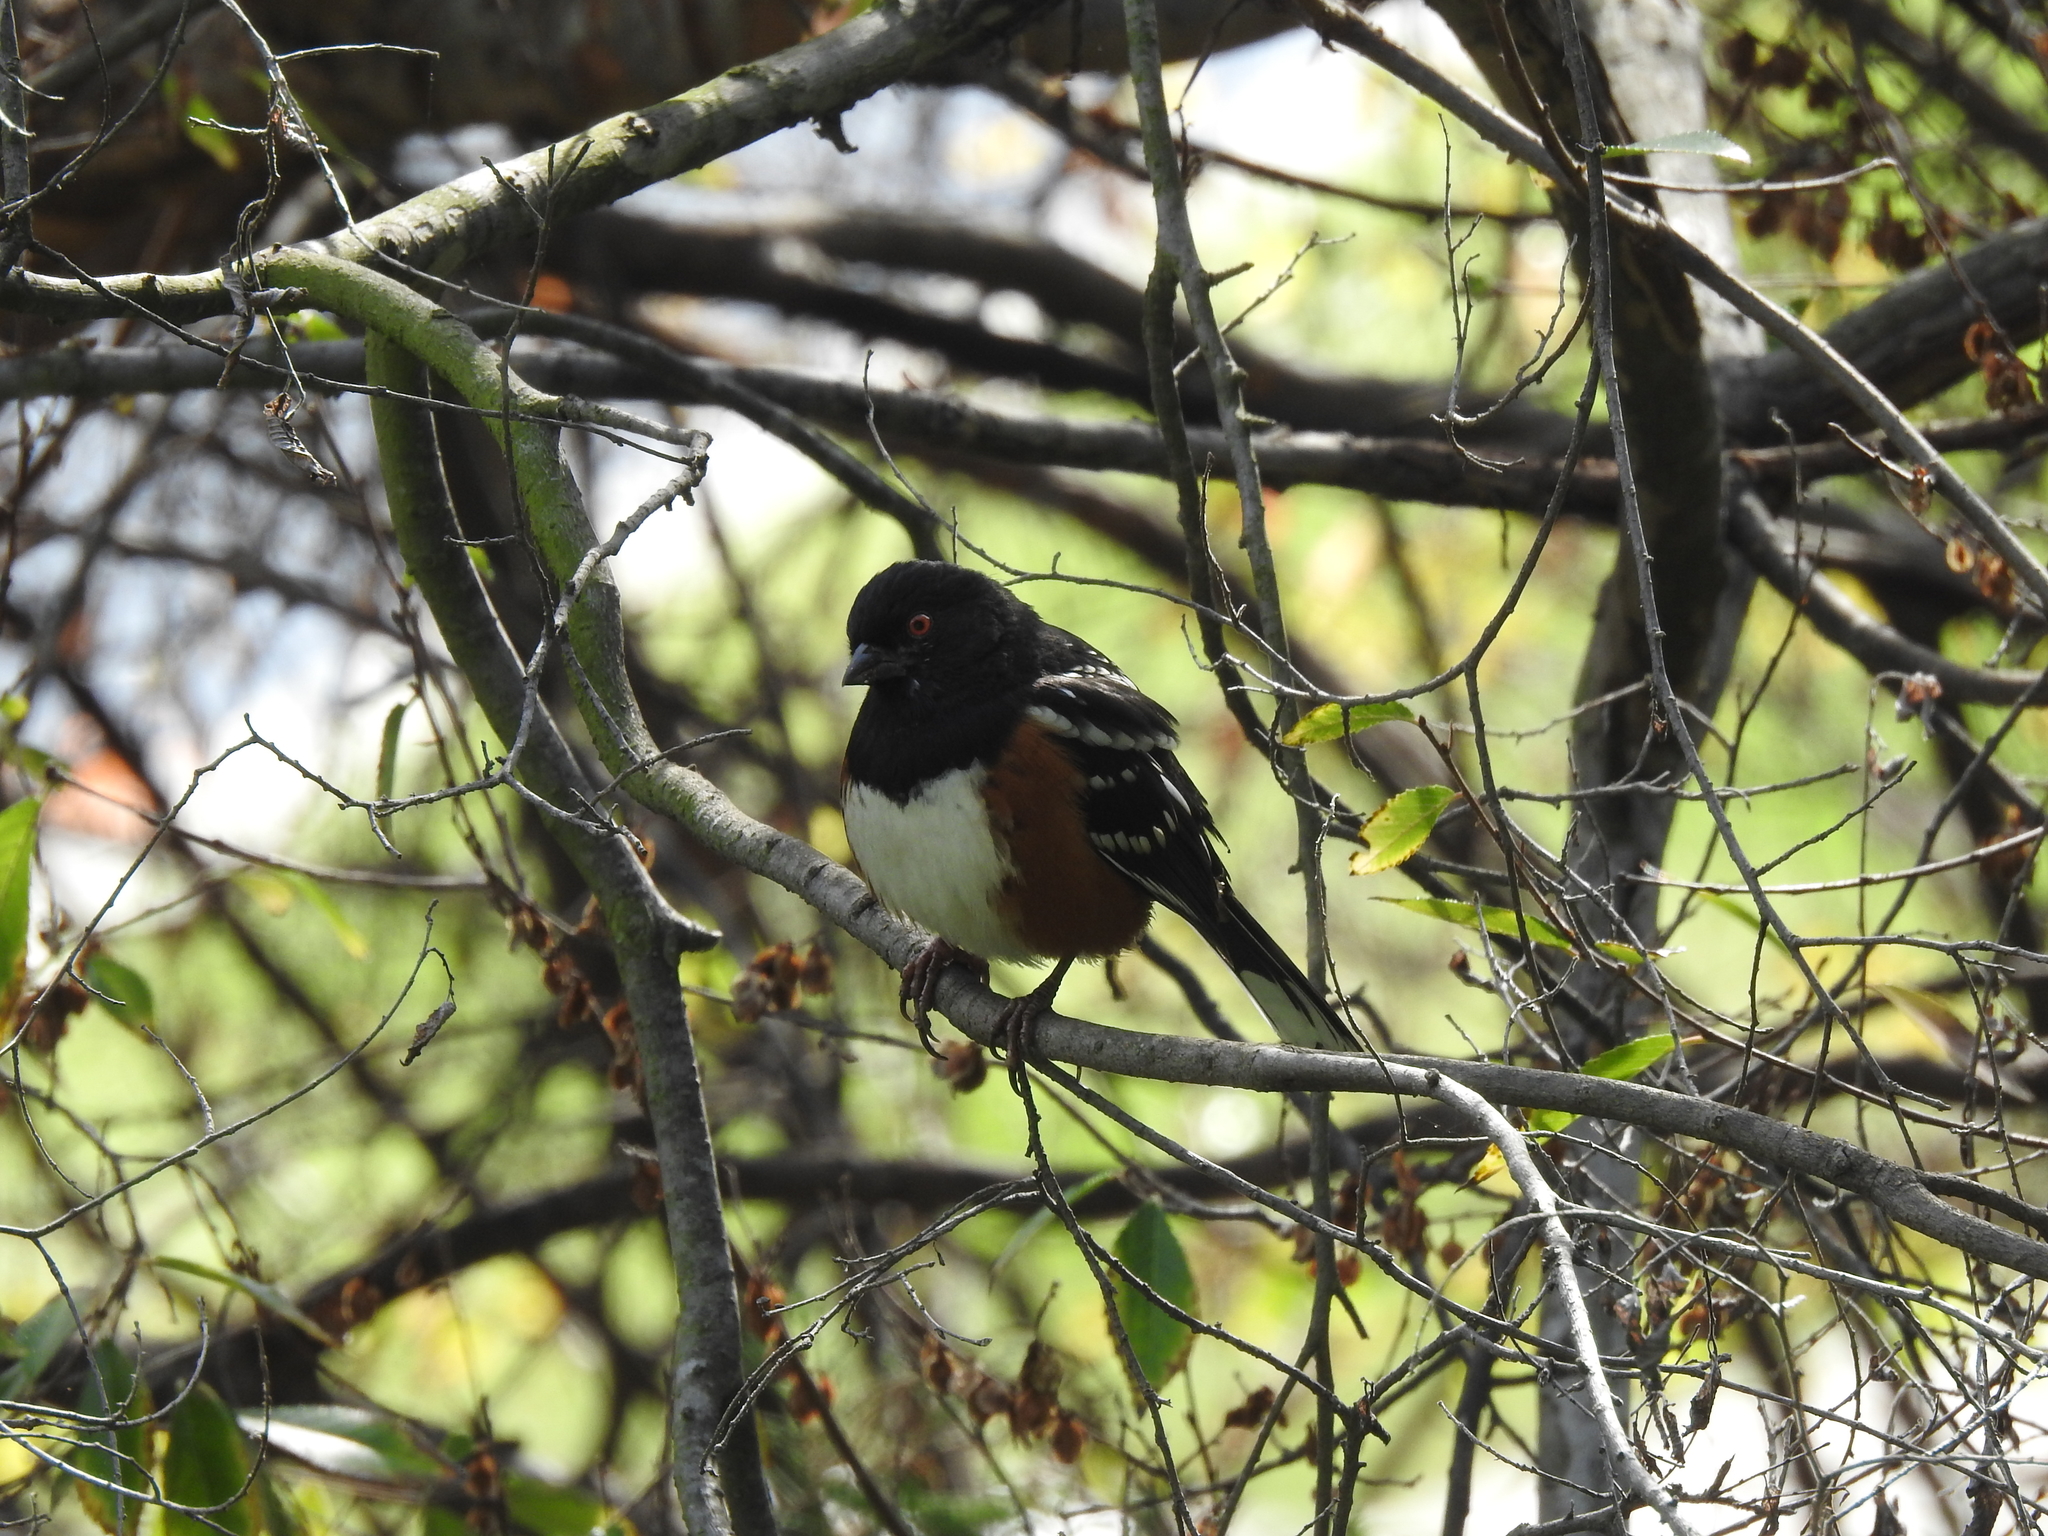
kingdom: Animalia
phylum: Chordata
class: Aves
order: Passeriformes
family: Passerellidae
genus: Pipilo
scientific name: Pipilo maculatus
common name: Spotted towhee
